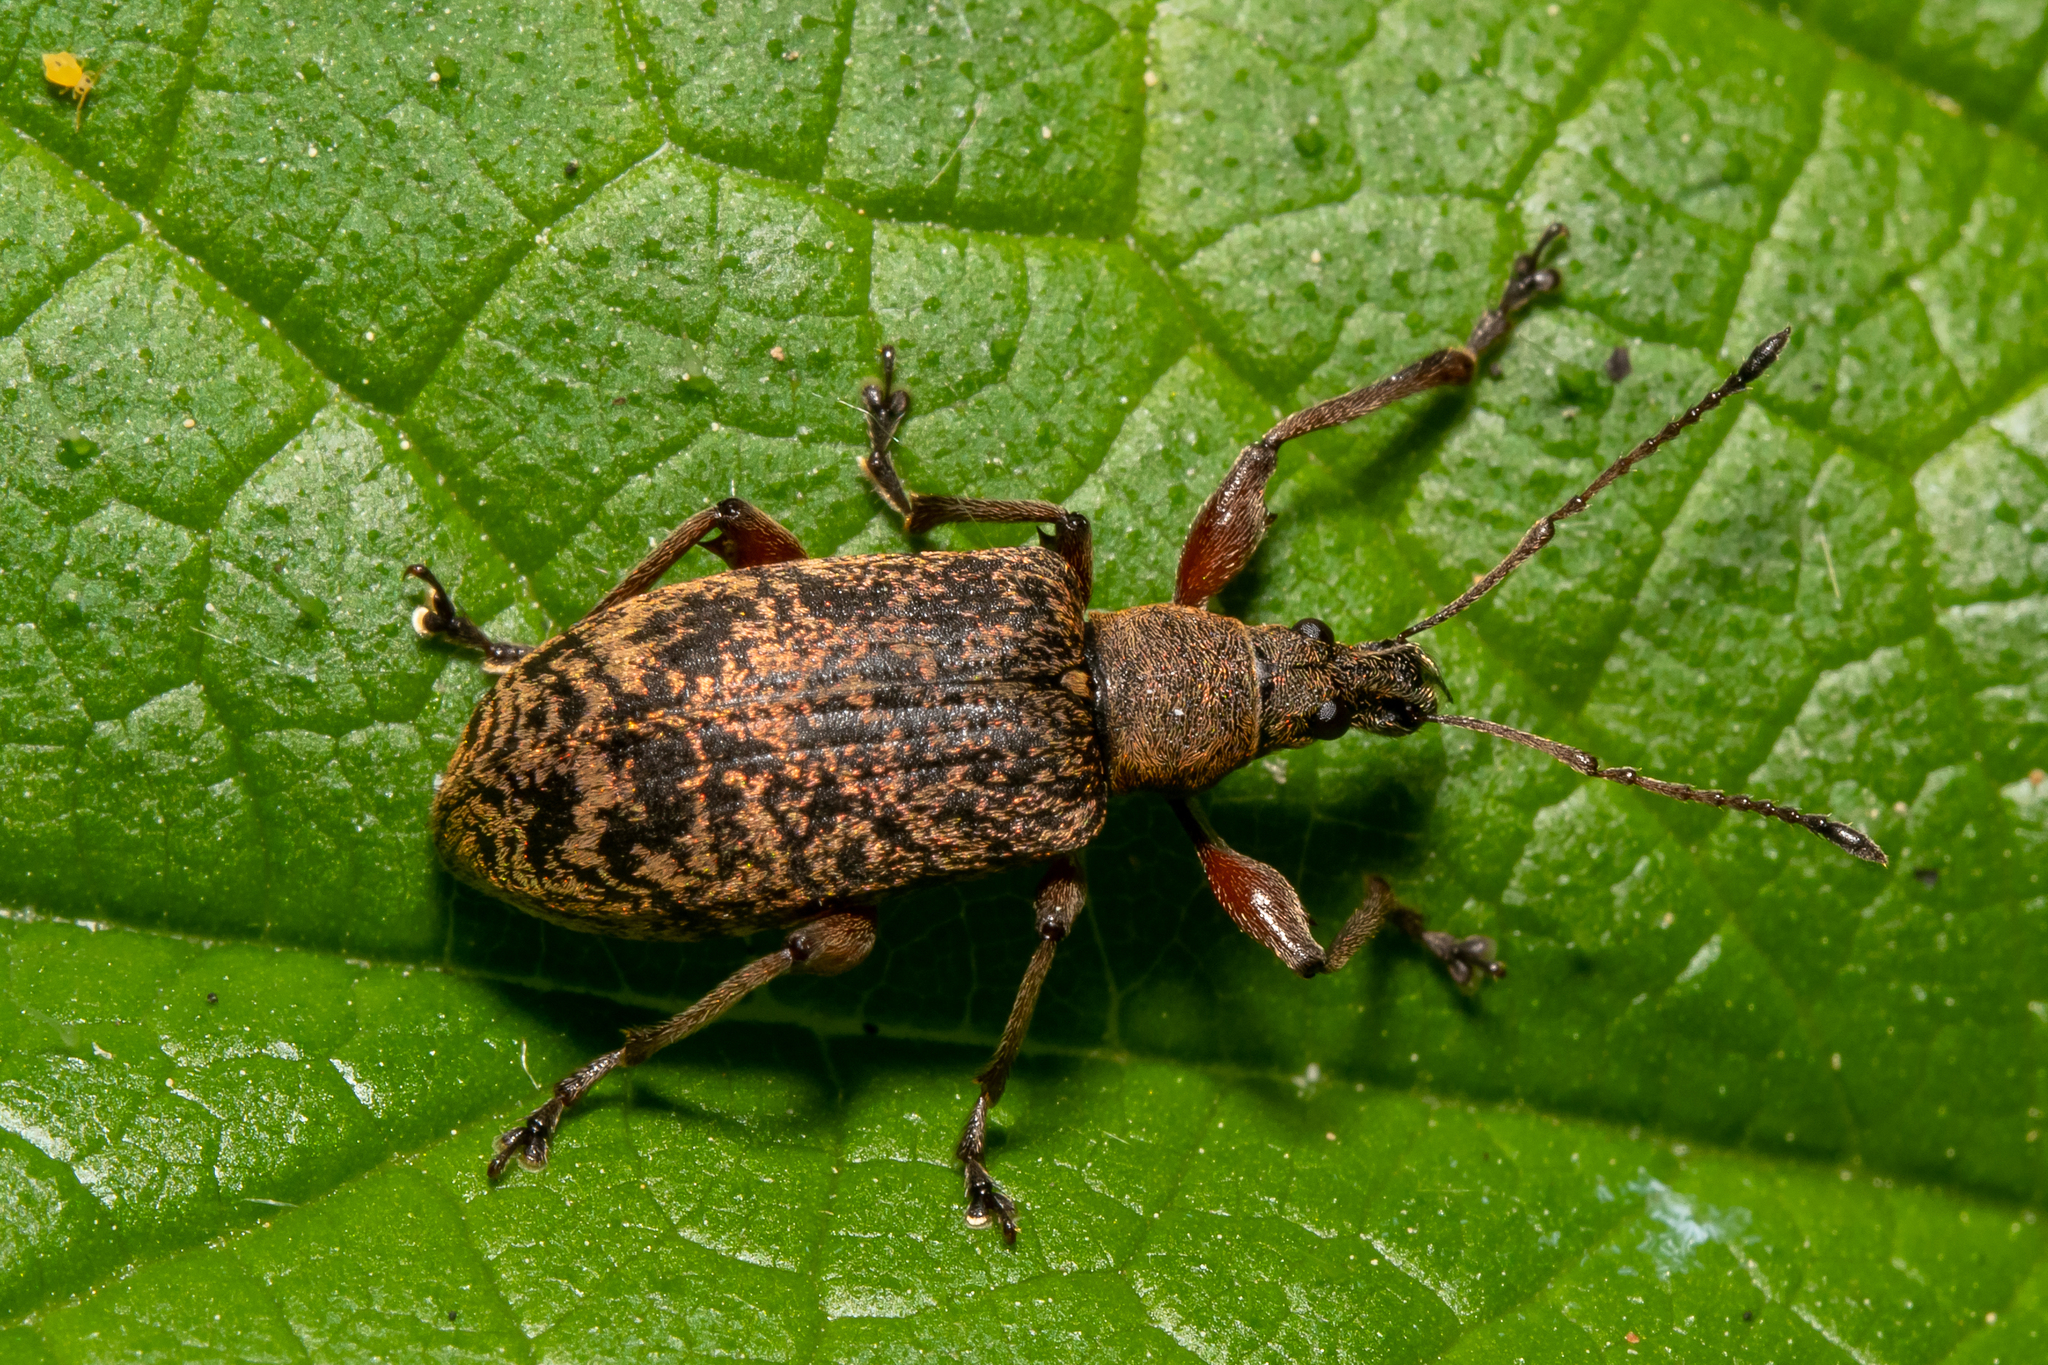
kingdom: Animalia
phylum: Arthropoda
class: Insecta
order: Coleoptera
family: Curculionidae
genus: Phyllobius
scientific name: Phyllobius glaucus
